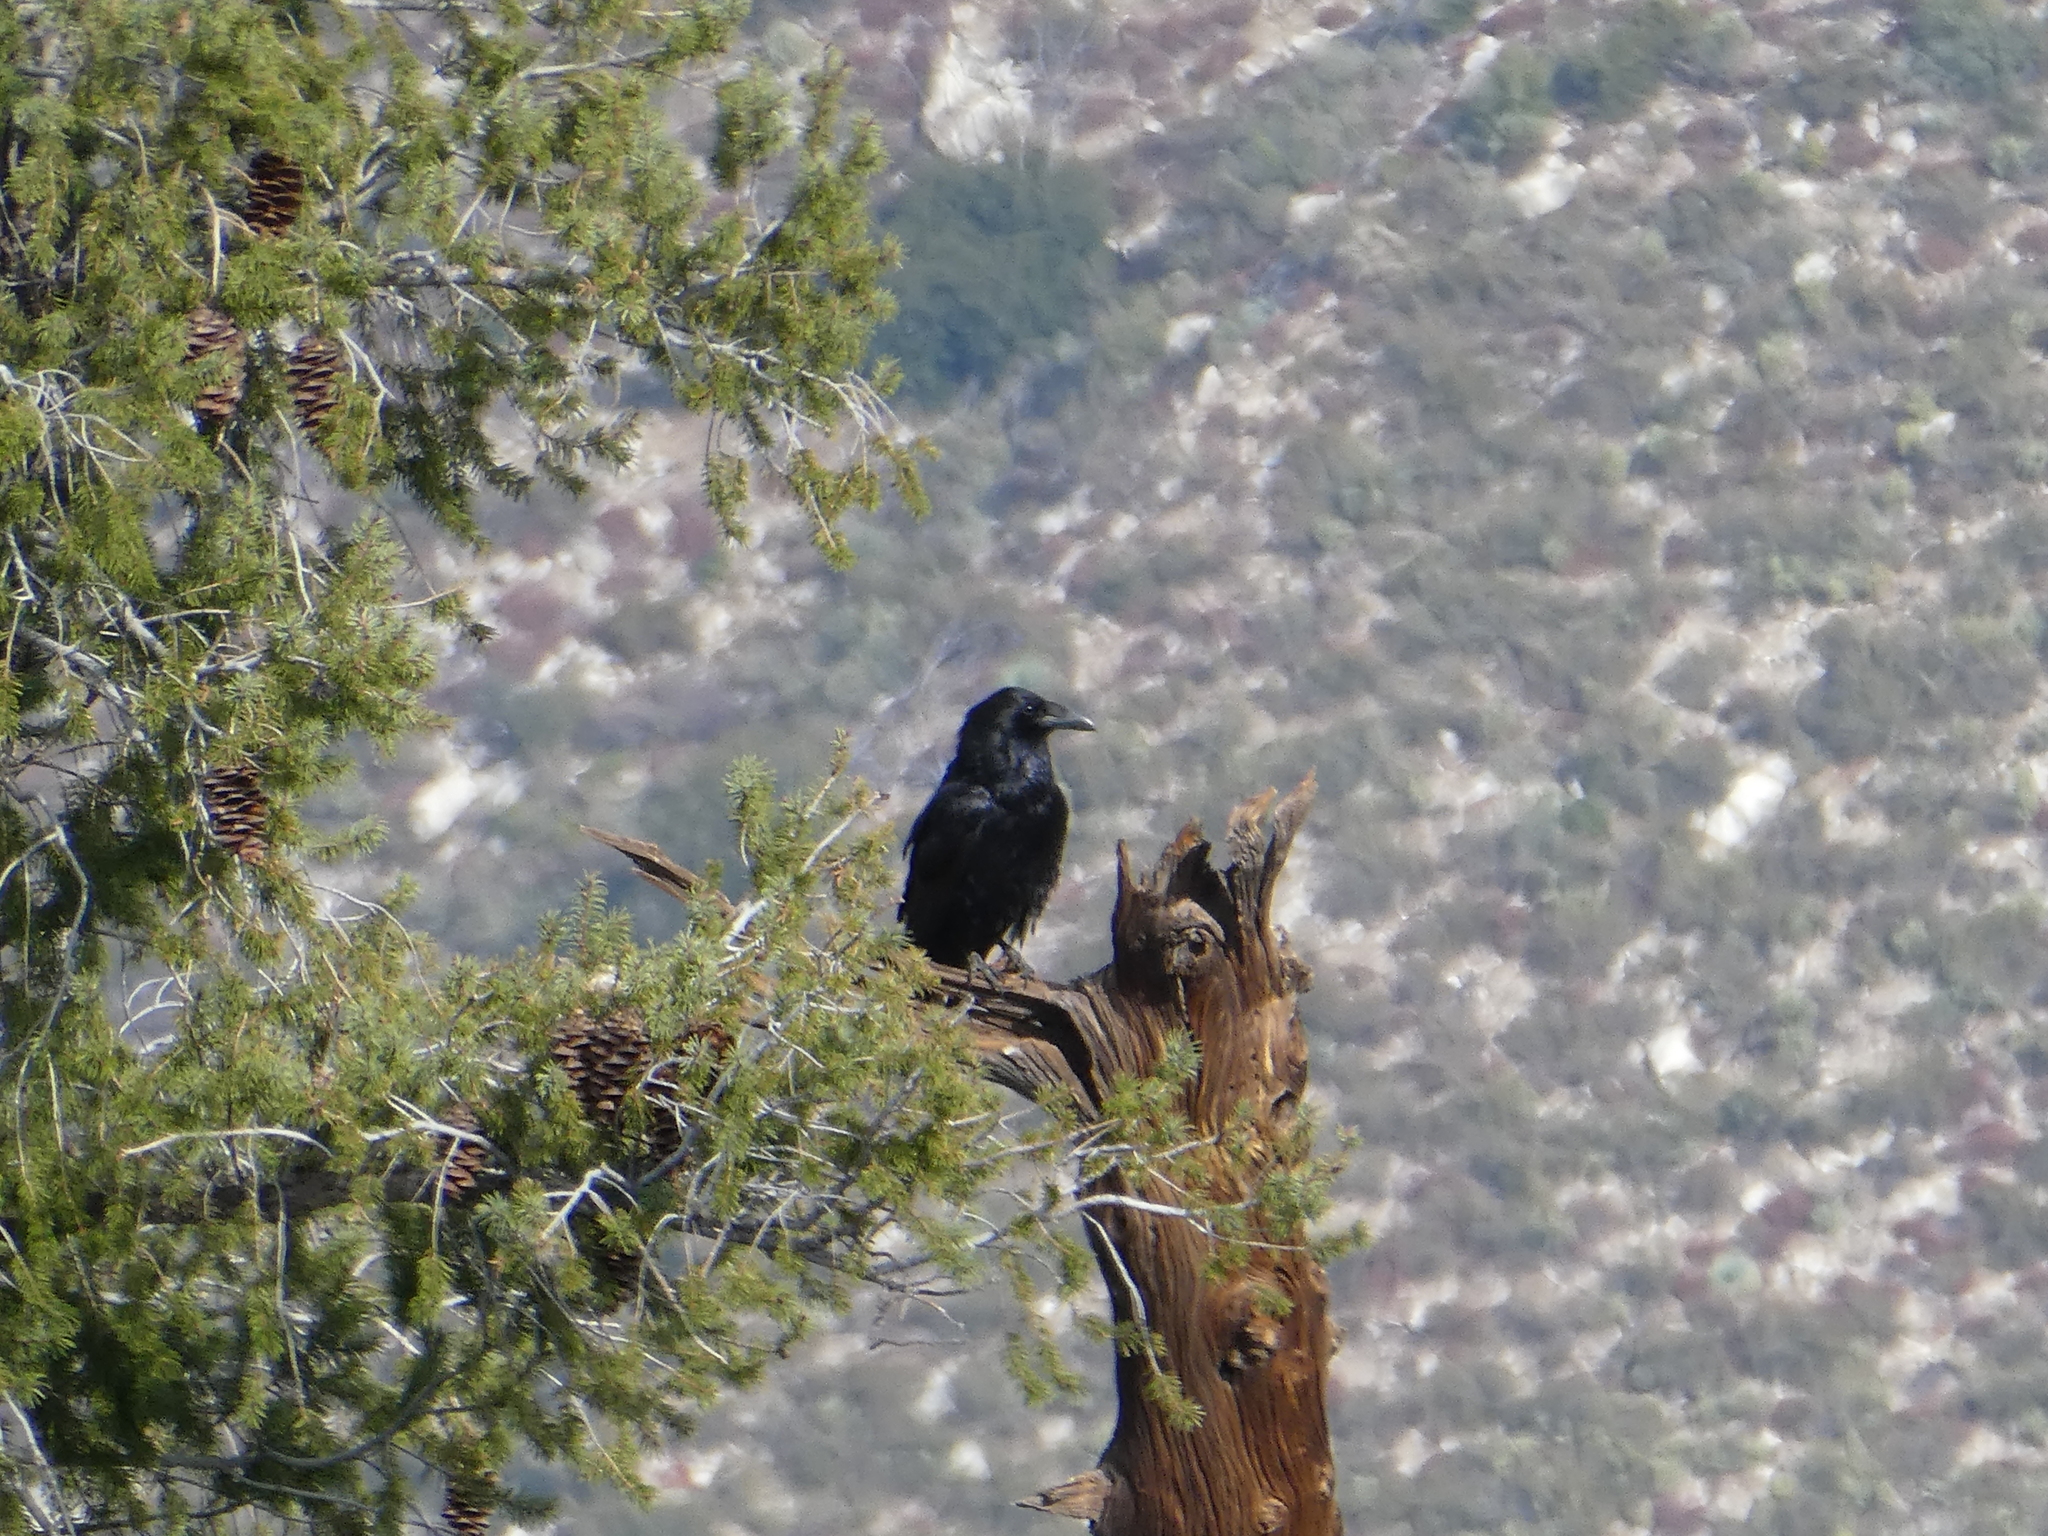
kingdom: Animalia
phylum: Chordata
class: Aves
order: Passeriformes
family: Corvidae
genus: Corvus
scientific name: Corvus corax
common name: Common raven
